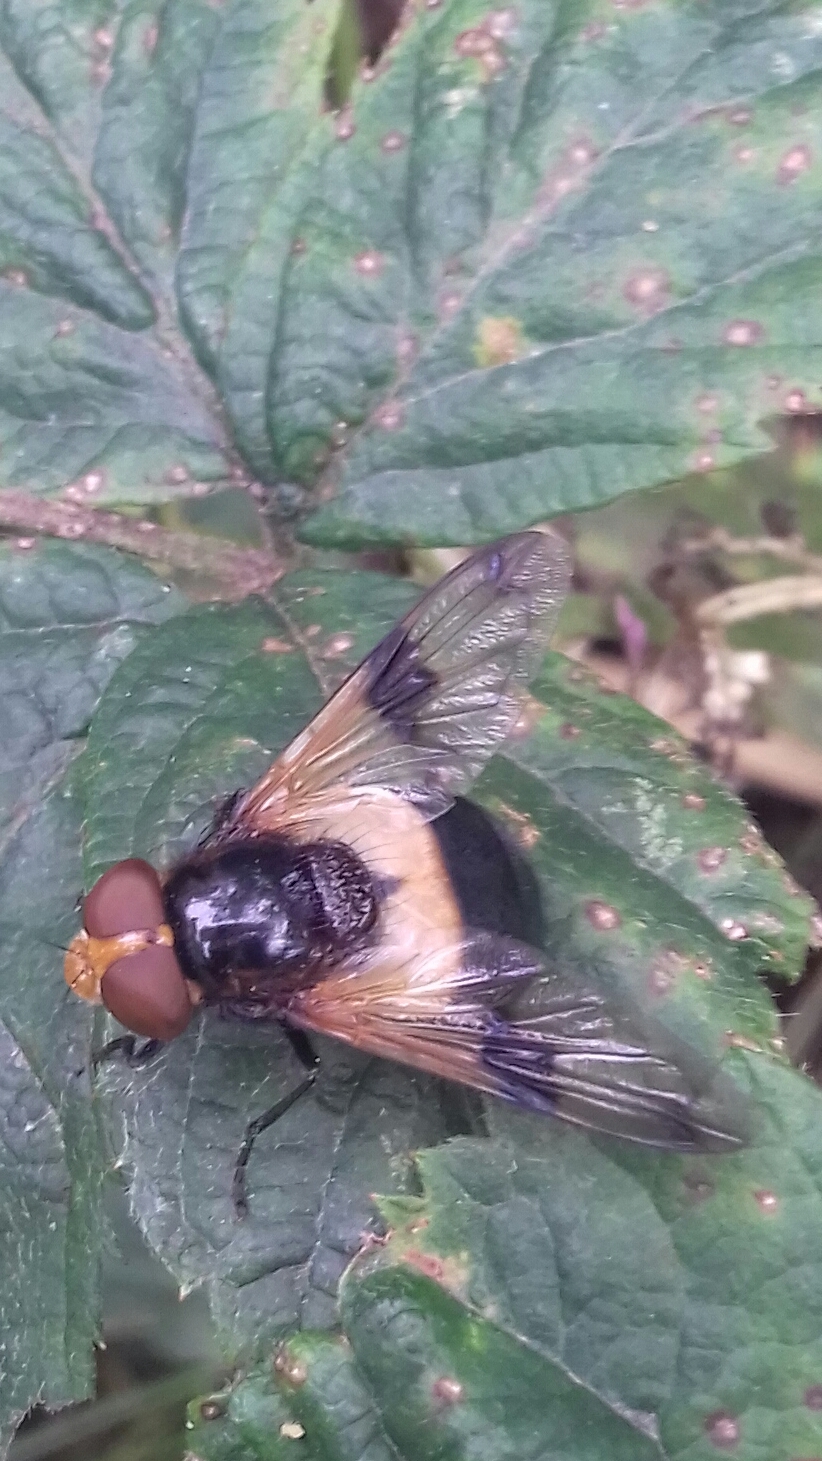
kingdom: Animalia
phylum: Arthropoda
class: Insecta
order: Diptera
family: Syrphidae
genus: Volucella
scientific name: Volucella pellucens
